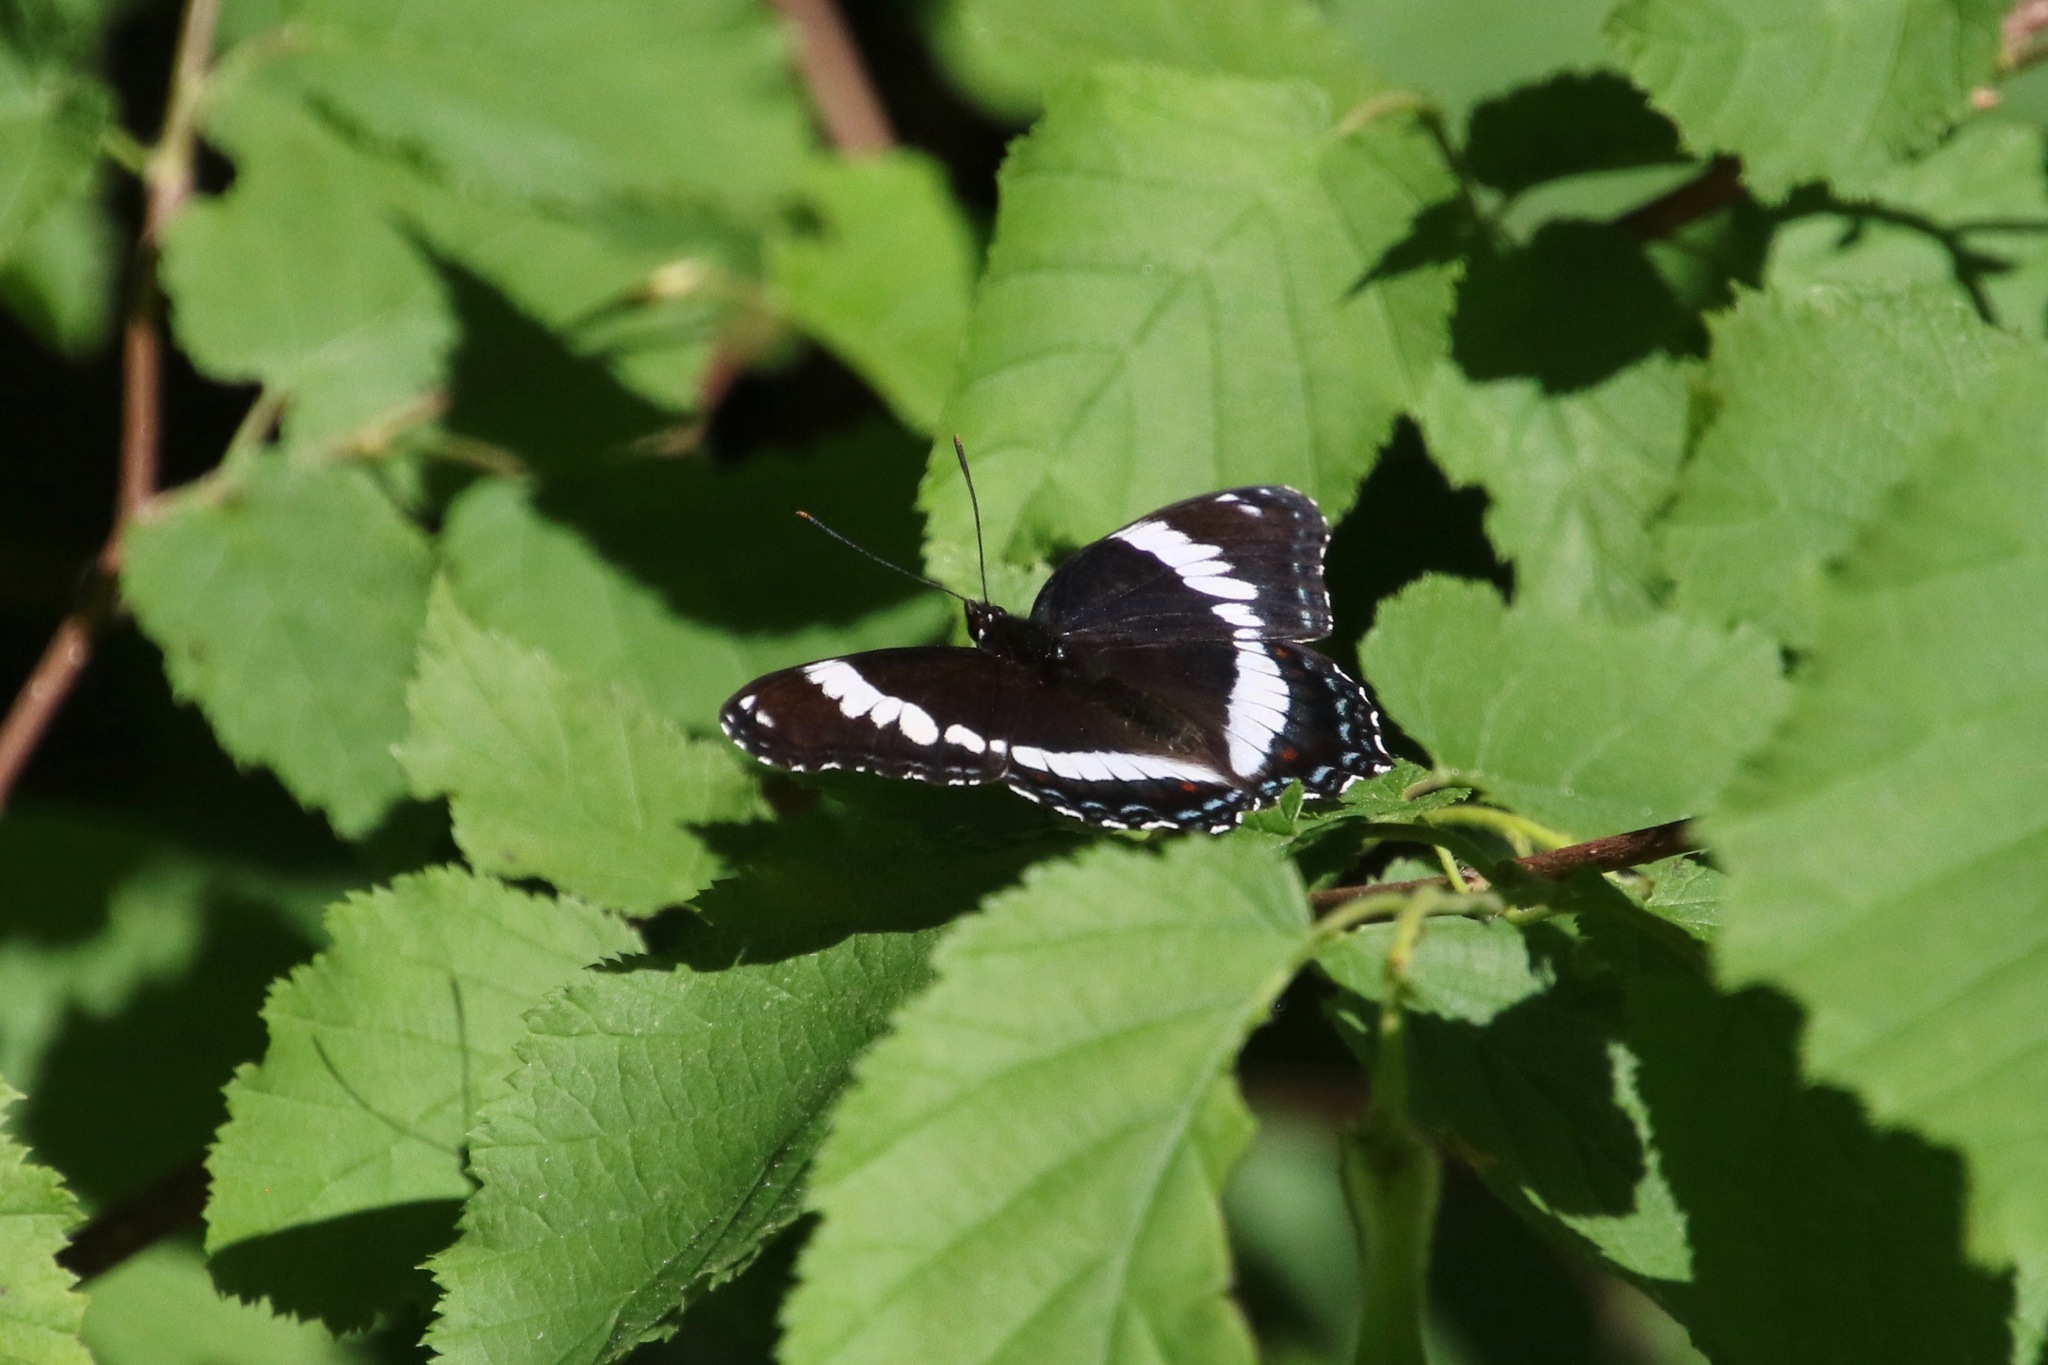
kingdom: Animalia
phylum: Arthropoda
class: Insecta
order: Lepidoptera
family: Nymphalidae
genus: Limenitis
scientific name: Limenitis arthemis
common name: Red-spotted admiral
